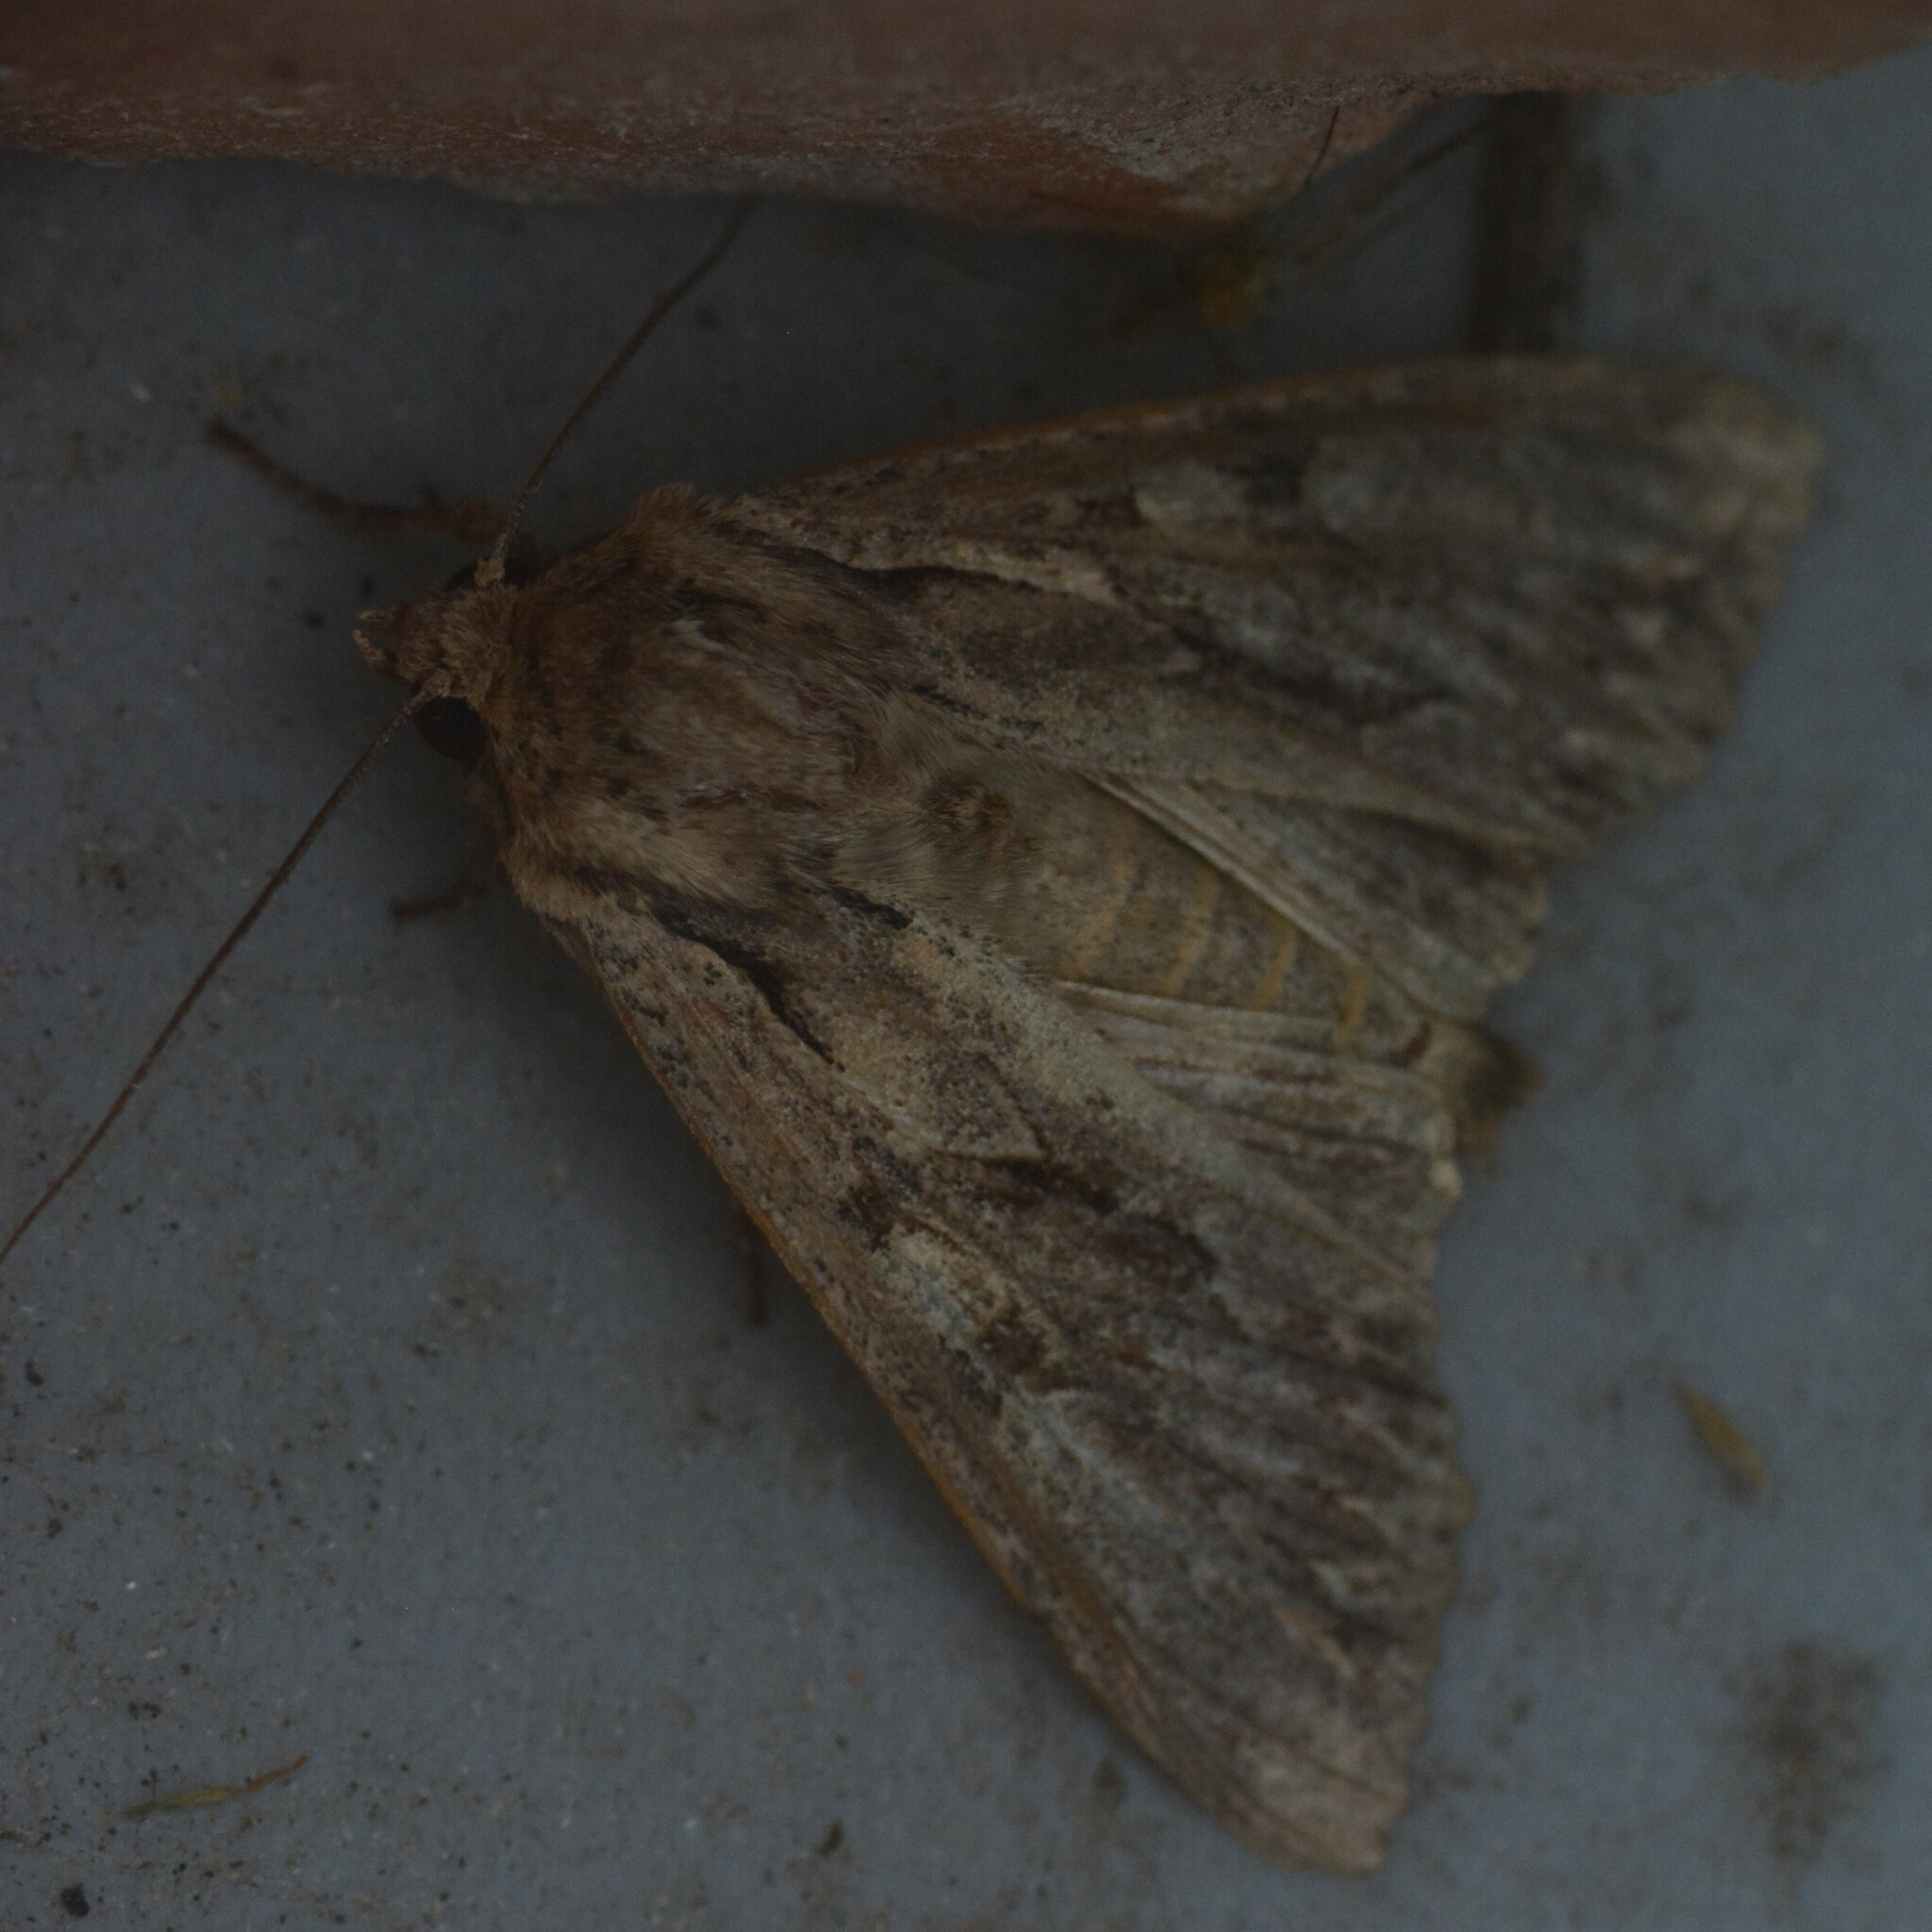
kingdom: Animalia
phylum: Arthropoda
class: Insecta
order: Lepidoptera
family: Noctuidae
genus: Apamea
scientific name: Apamea monoglypha
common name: Dark arches
